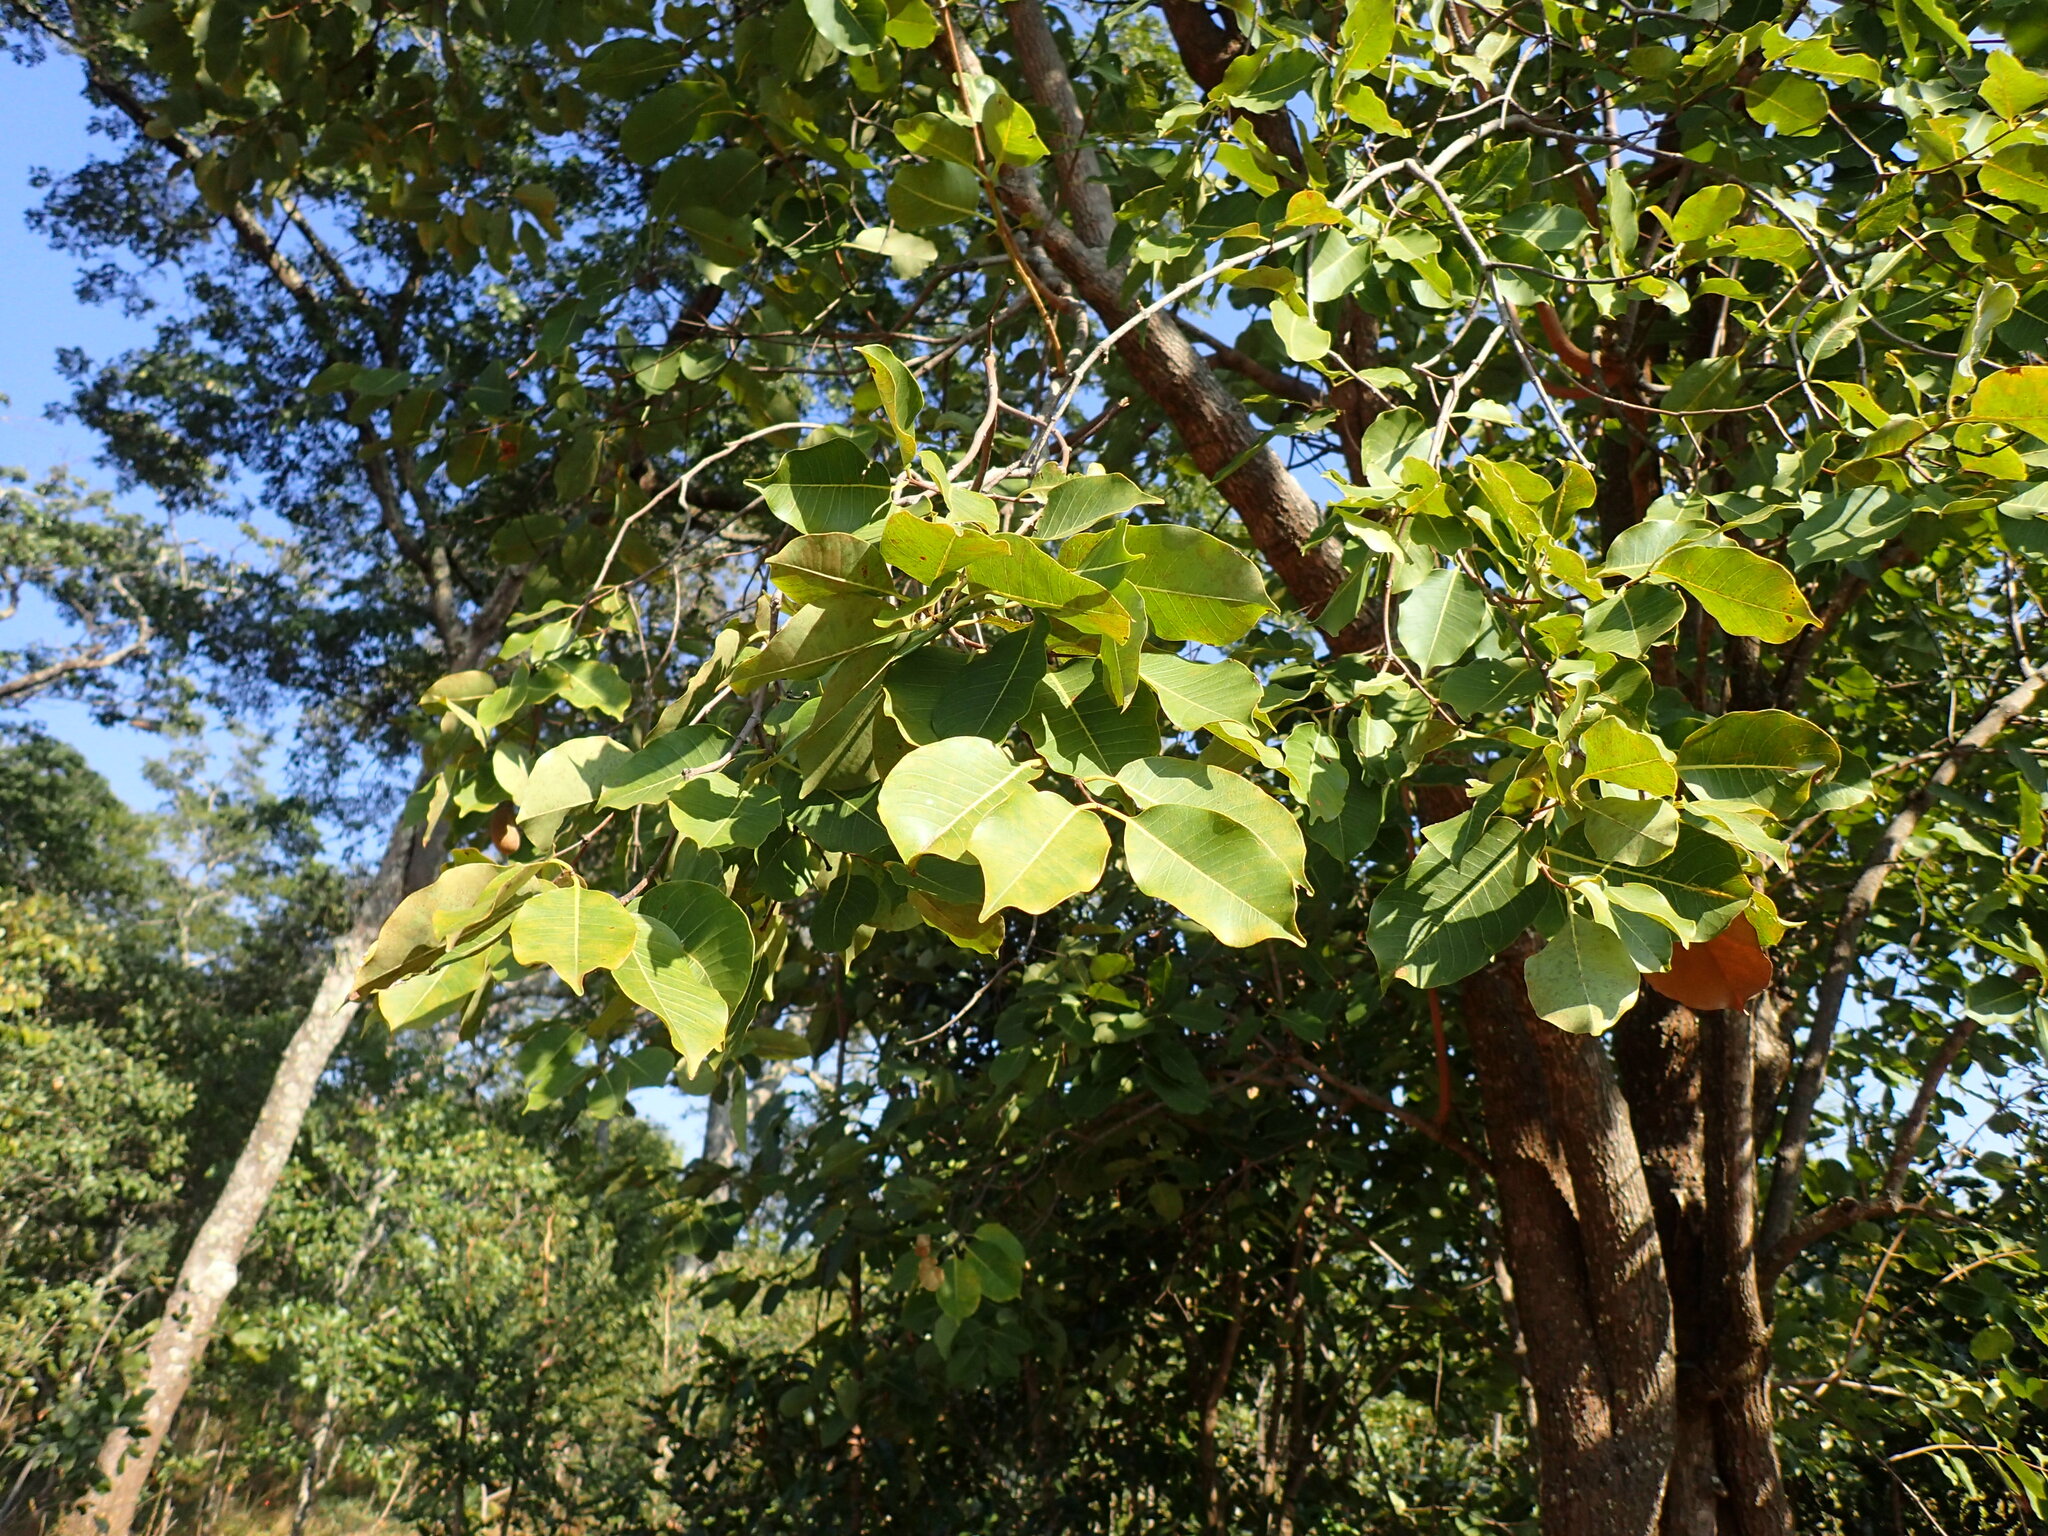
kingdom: Plantae
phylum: Tracheophyta
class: Magnoliopsida
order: Gentianales
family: Apocynaceae
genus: Diplorhynchus
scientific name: Diplorhynchus condylocarpon
